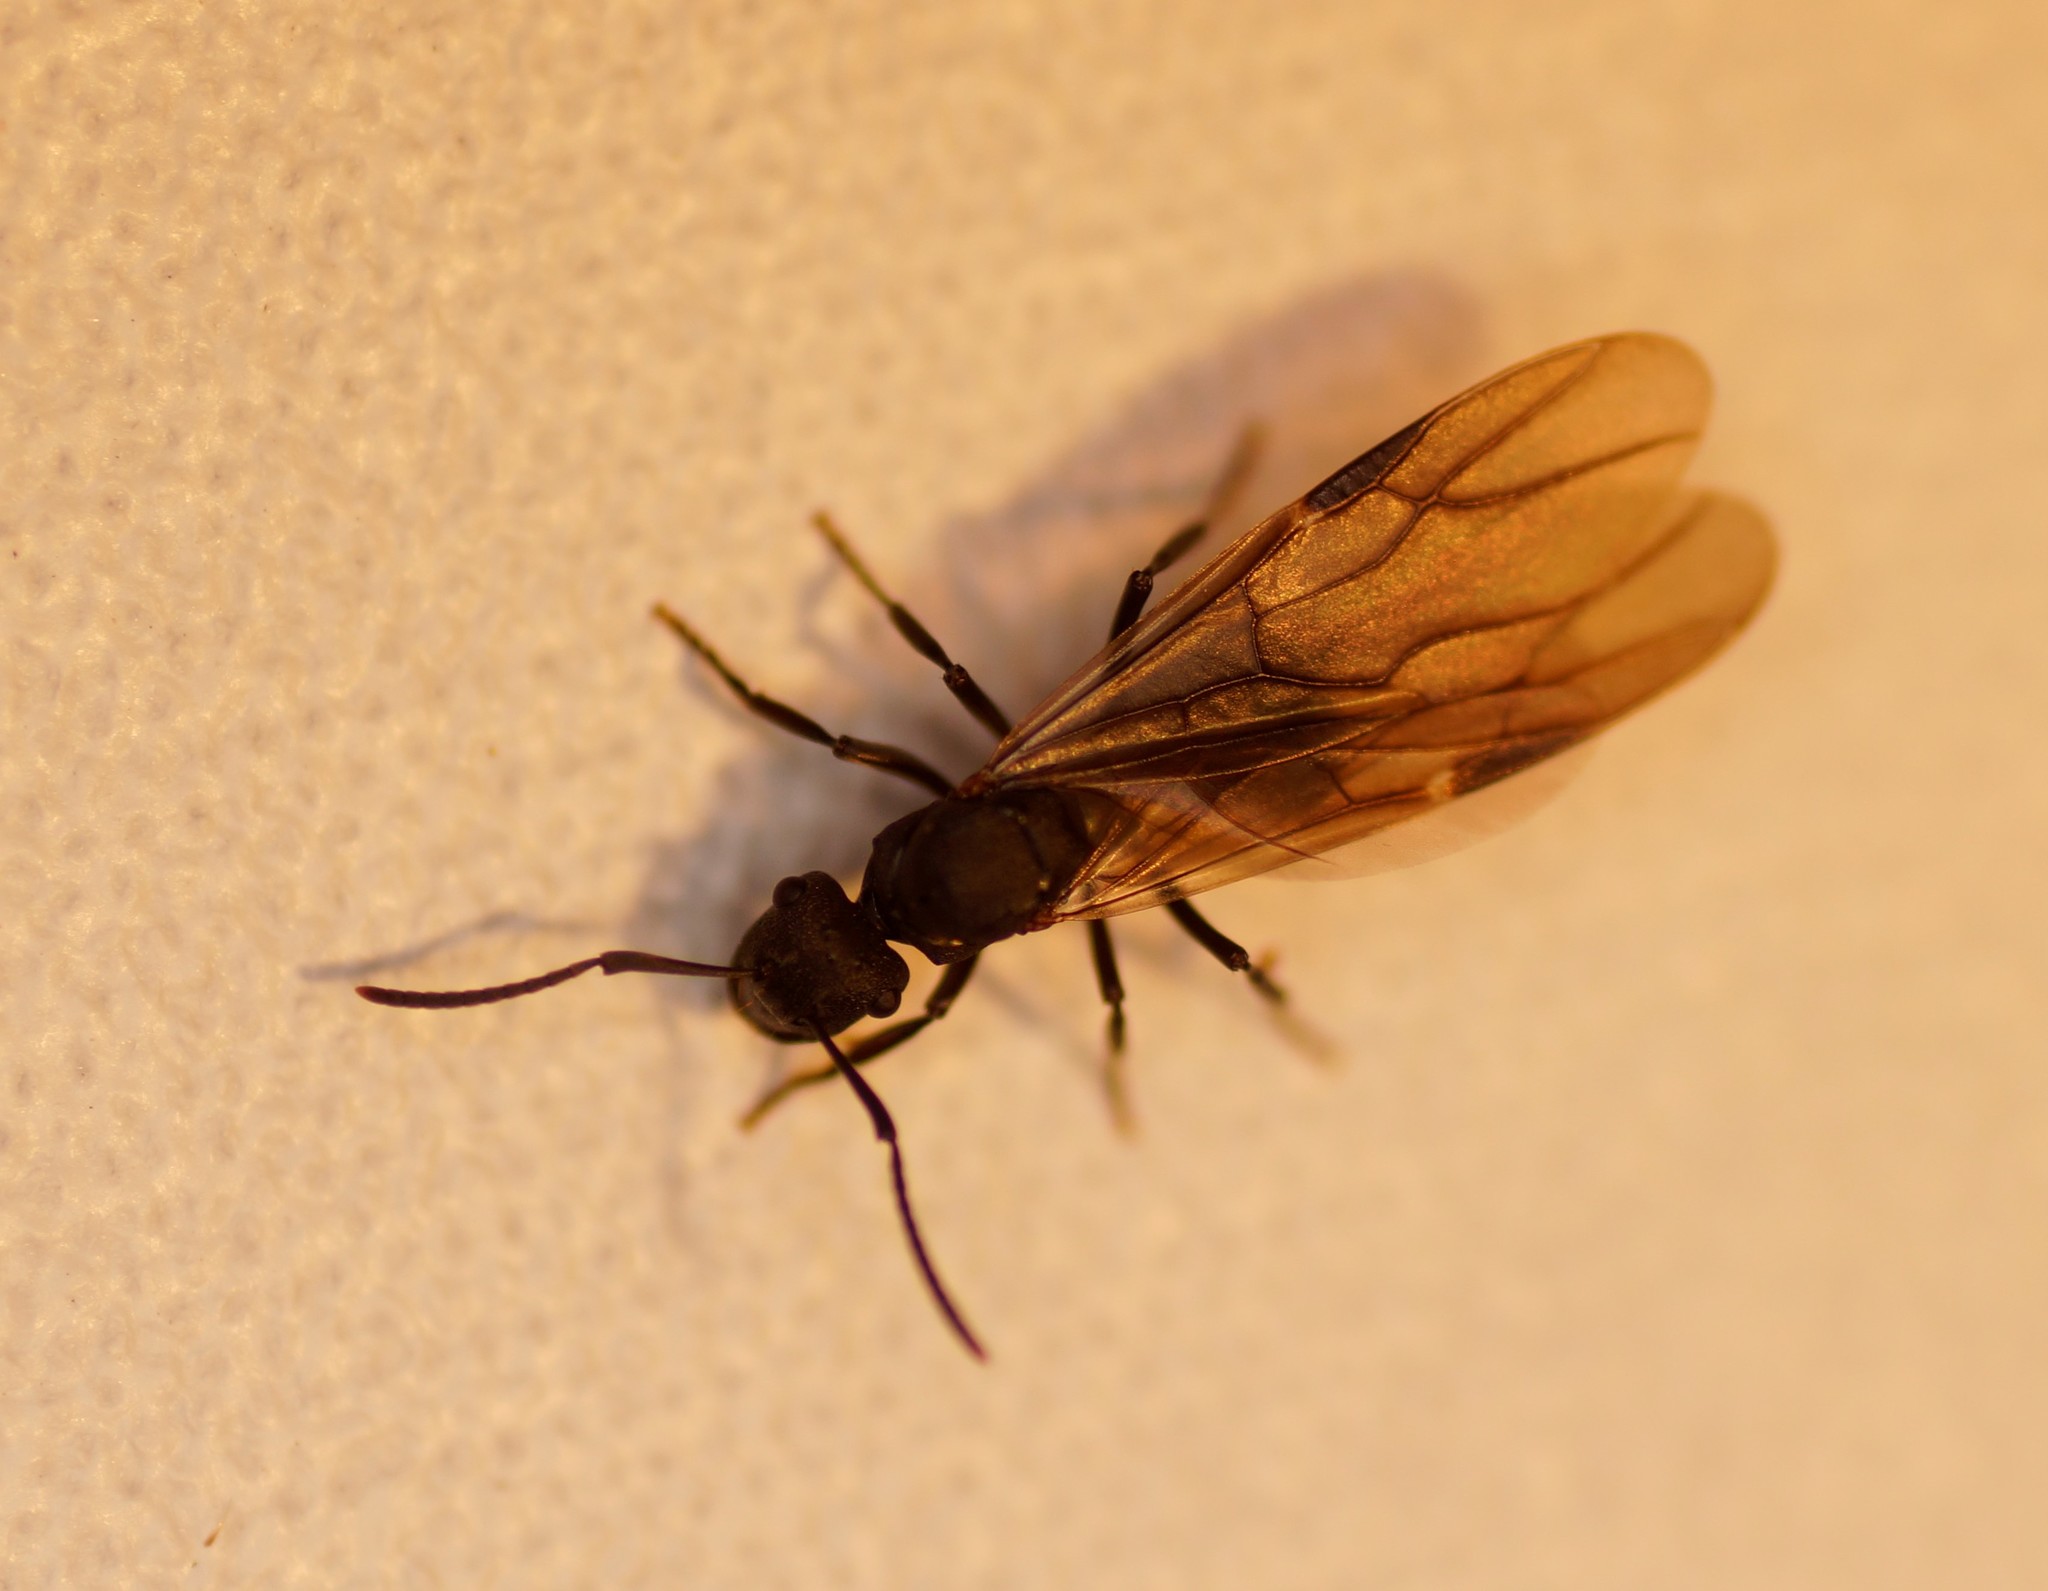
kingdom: Animalia
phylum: Arthropoda
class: Insecta
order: Hymenoptera
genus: Campomyrma
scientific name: Campomyrma
